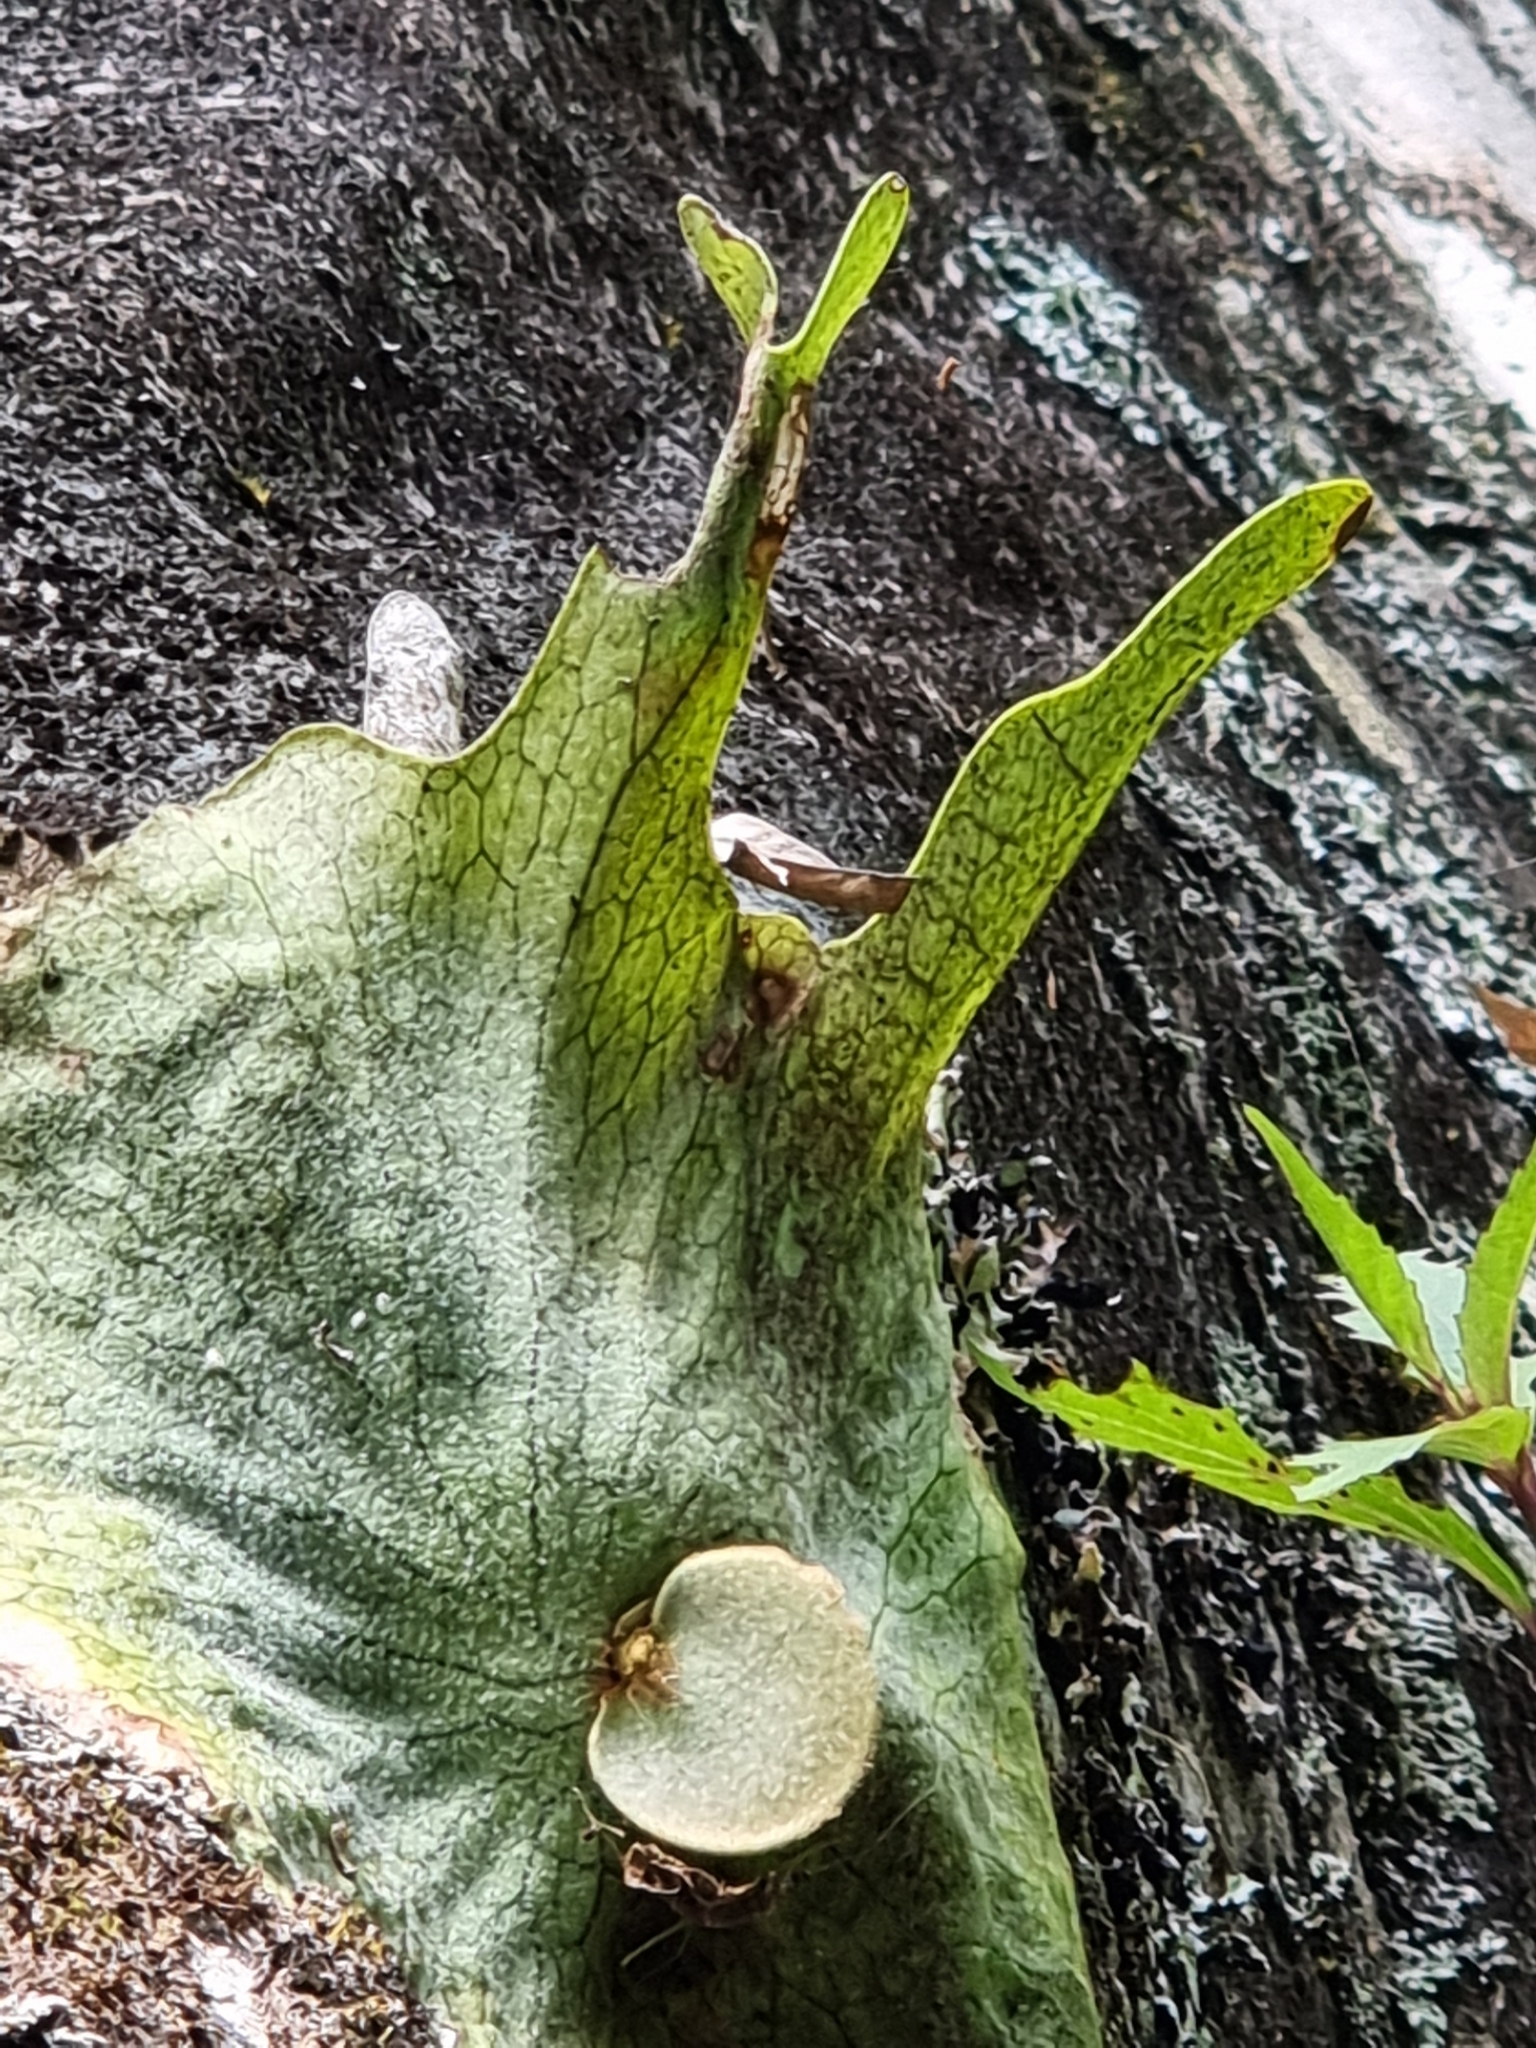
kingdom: Plantae
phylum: Tracheophyta
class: Polypodiopsida
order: Polypodiales
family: Polypodiaceae
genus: Platycerium
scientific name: Platycerium superbum
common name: Staghorn fern
